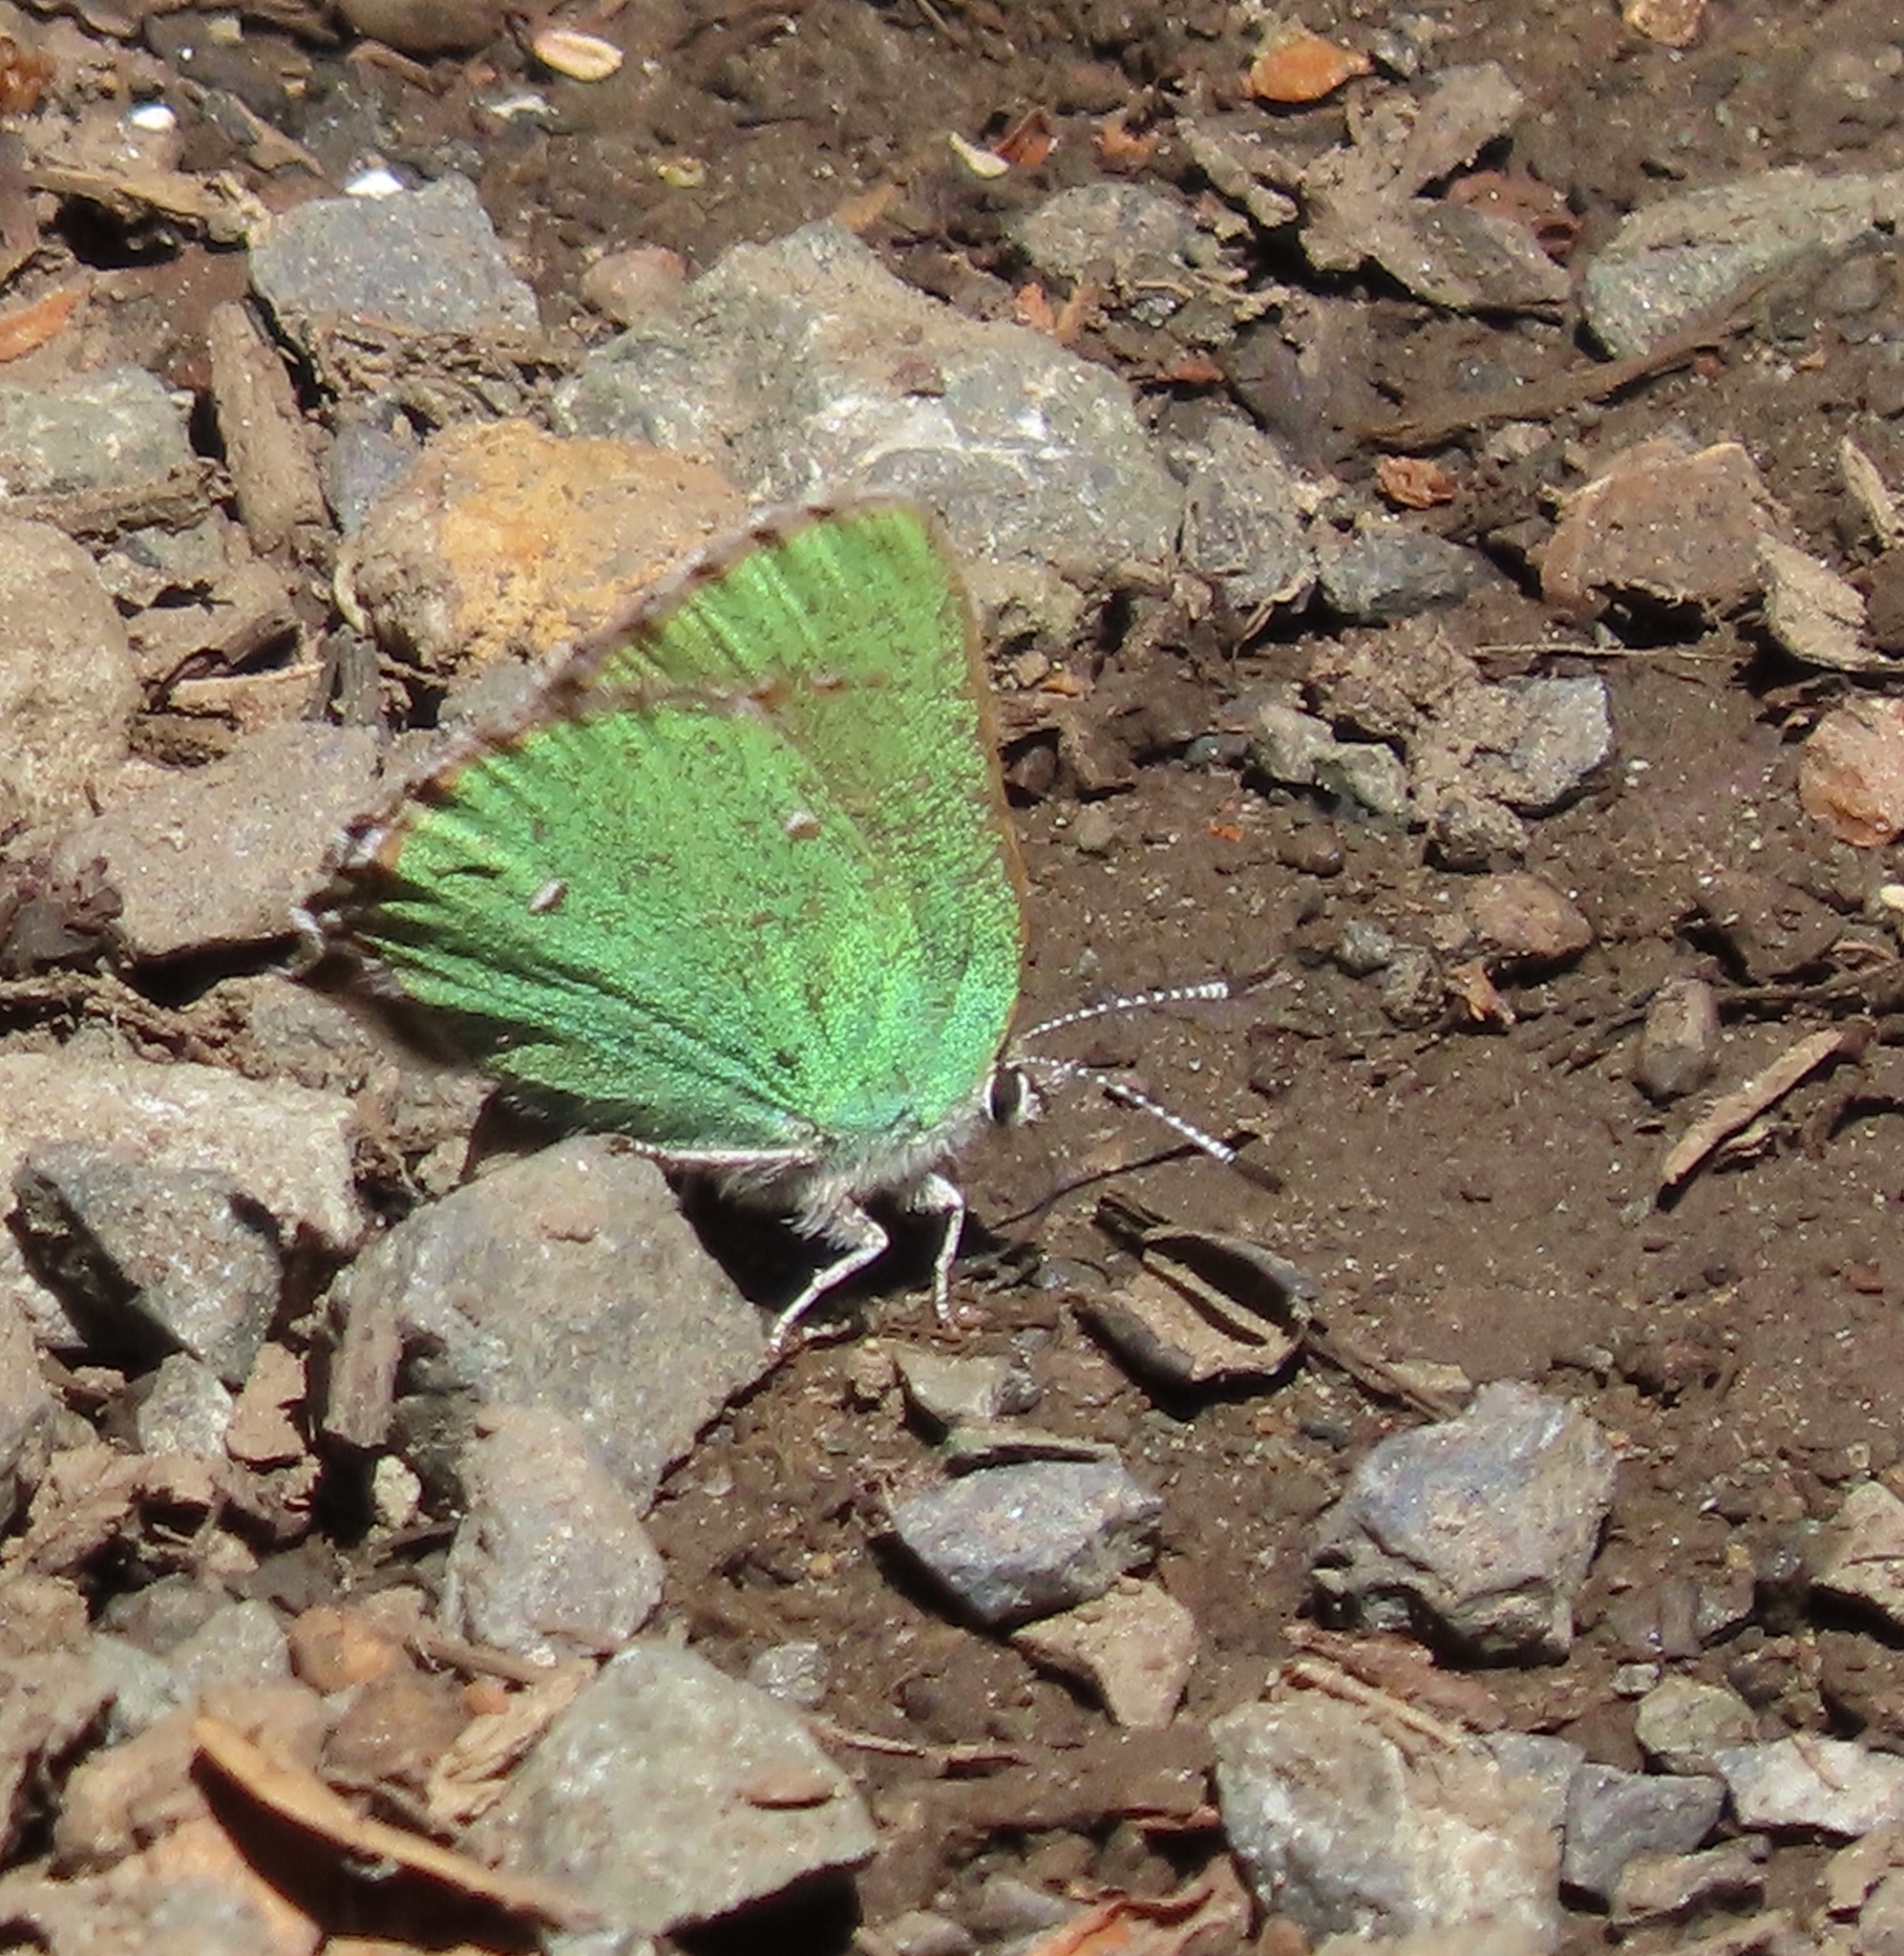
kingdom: Animalia
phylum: Arthropoda
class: Insecta
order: Lepidoptera
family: Lycaenidae
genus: Callophrys
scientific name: Callophrys dumetorum
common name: Bramble hairstreak
